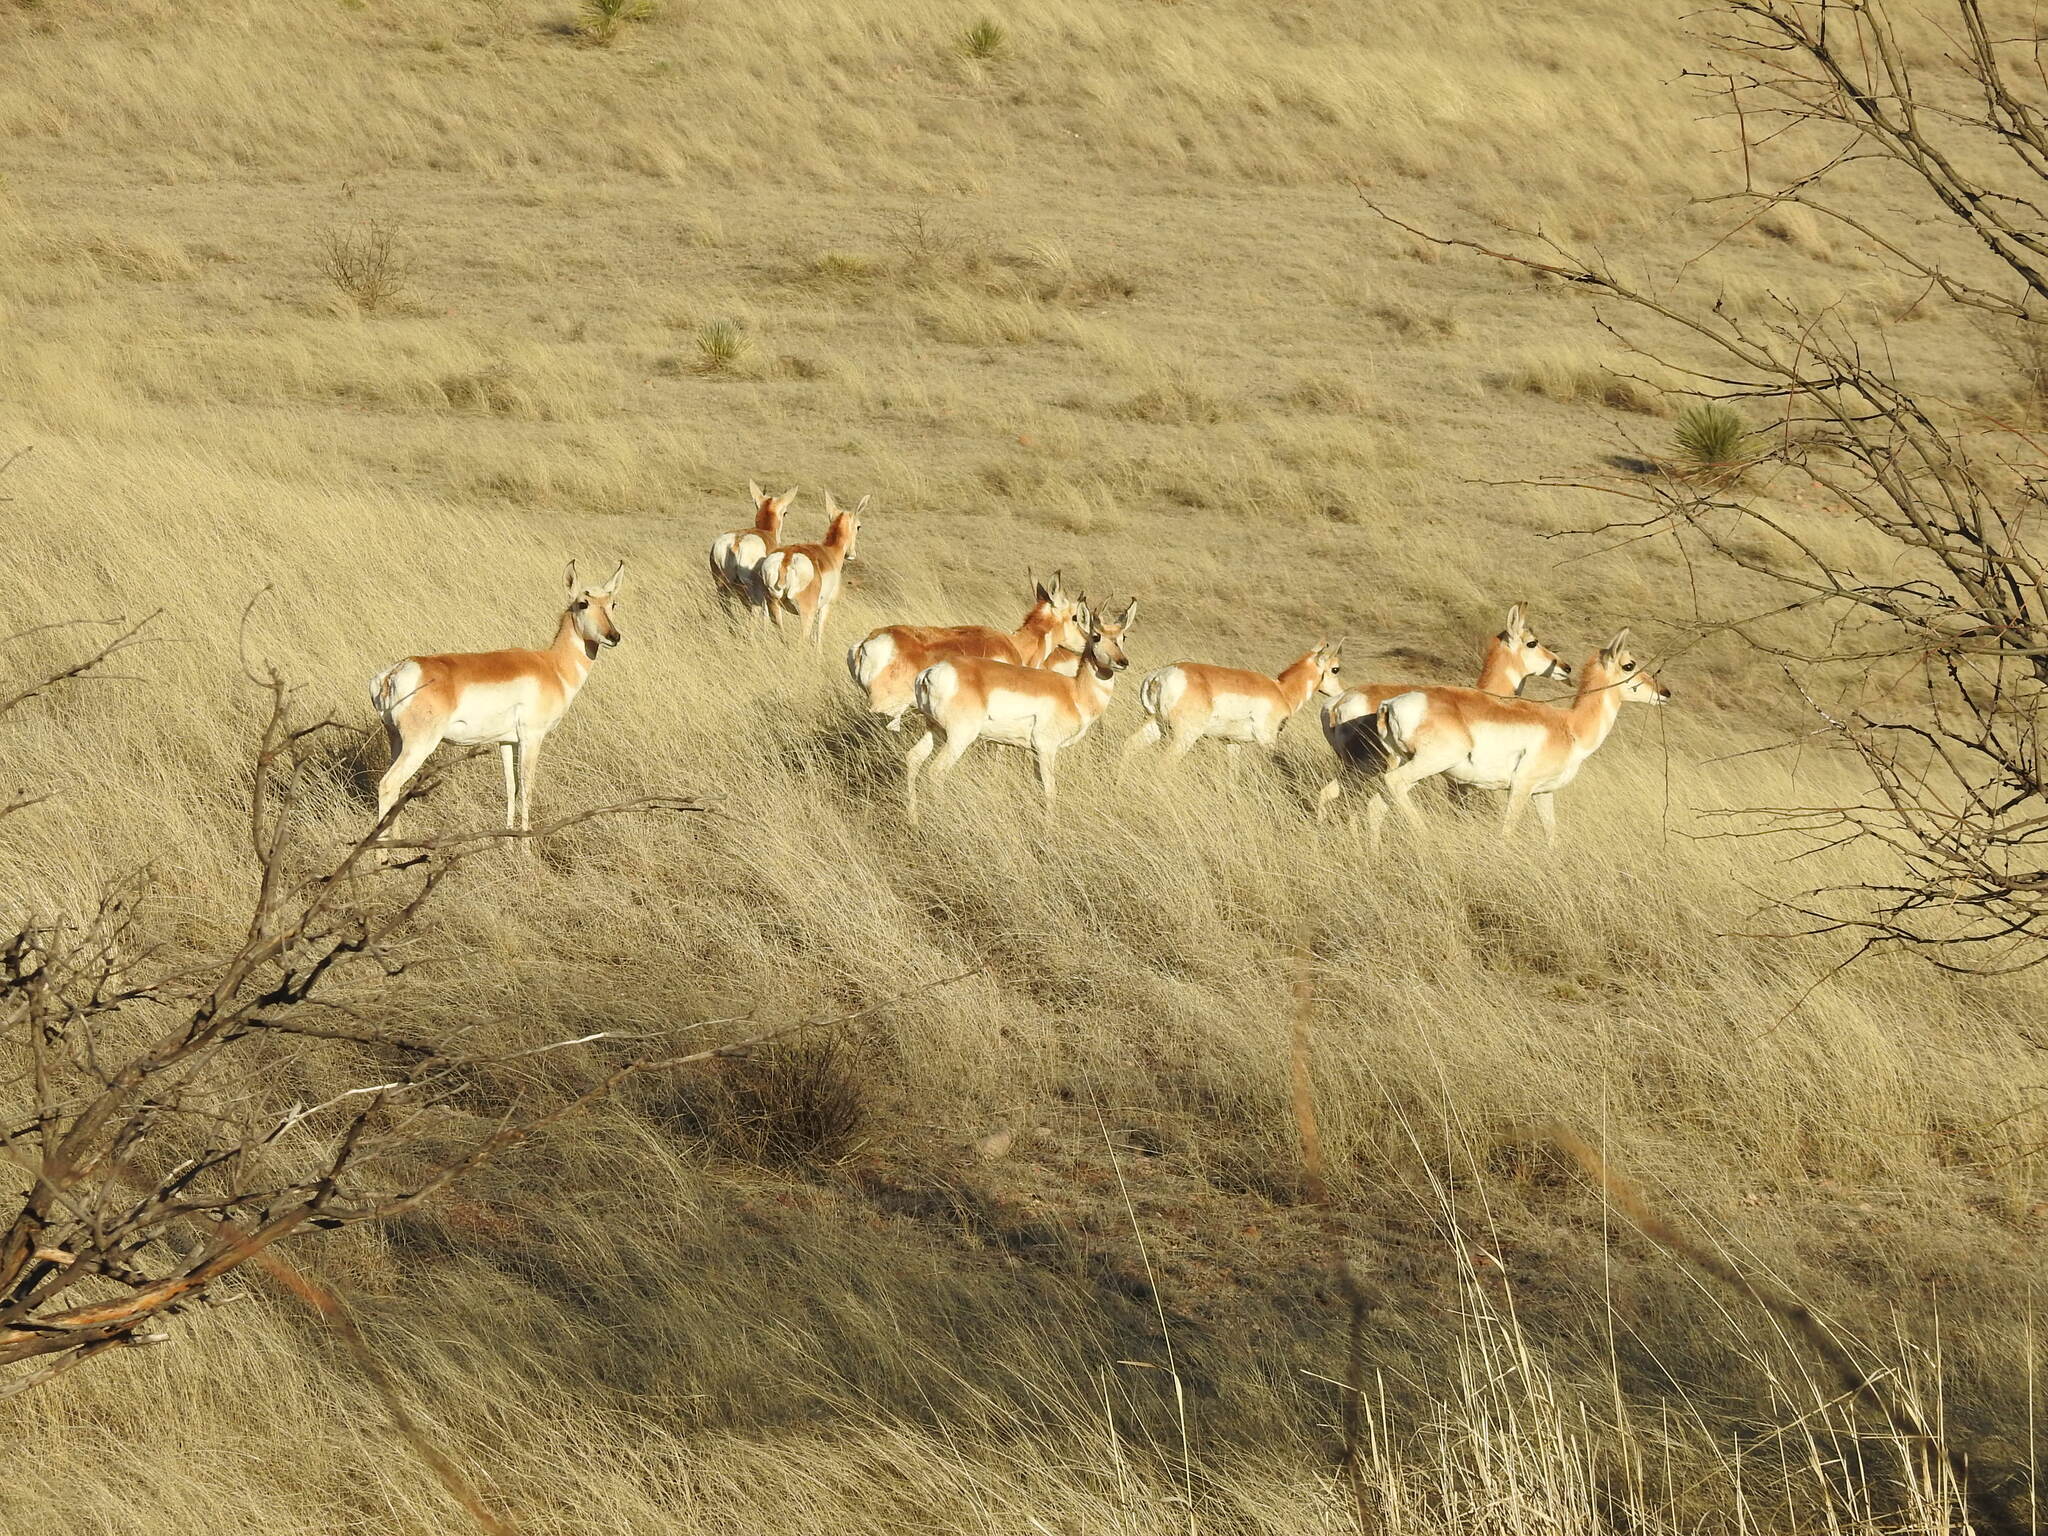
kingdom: Animalia
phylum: Chordata
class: Mammalia
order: Artiodactyla
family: Antilocapridae
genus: Antilocapra
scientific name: Antilocapra americana
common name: Pronghorn
